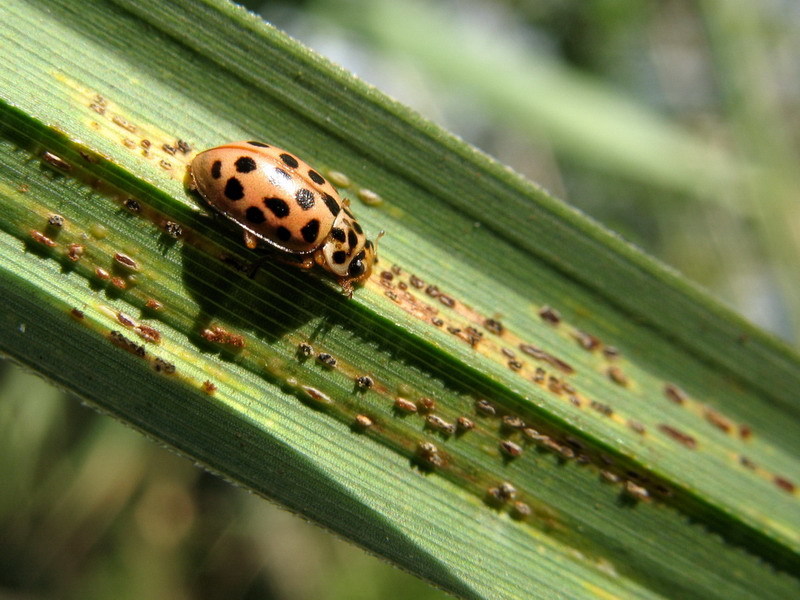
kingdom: Animalia
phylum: Arthropoda
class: Insecta
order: Coleoptera
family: Coccinellidae
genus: Anisosticta
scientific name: Anisosticta novemdecimpunctata
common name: Water ladybird
